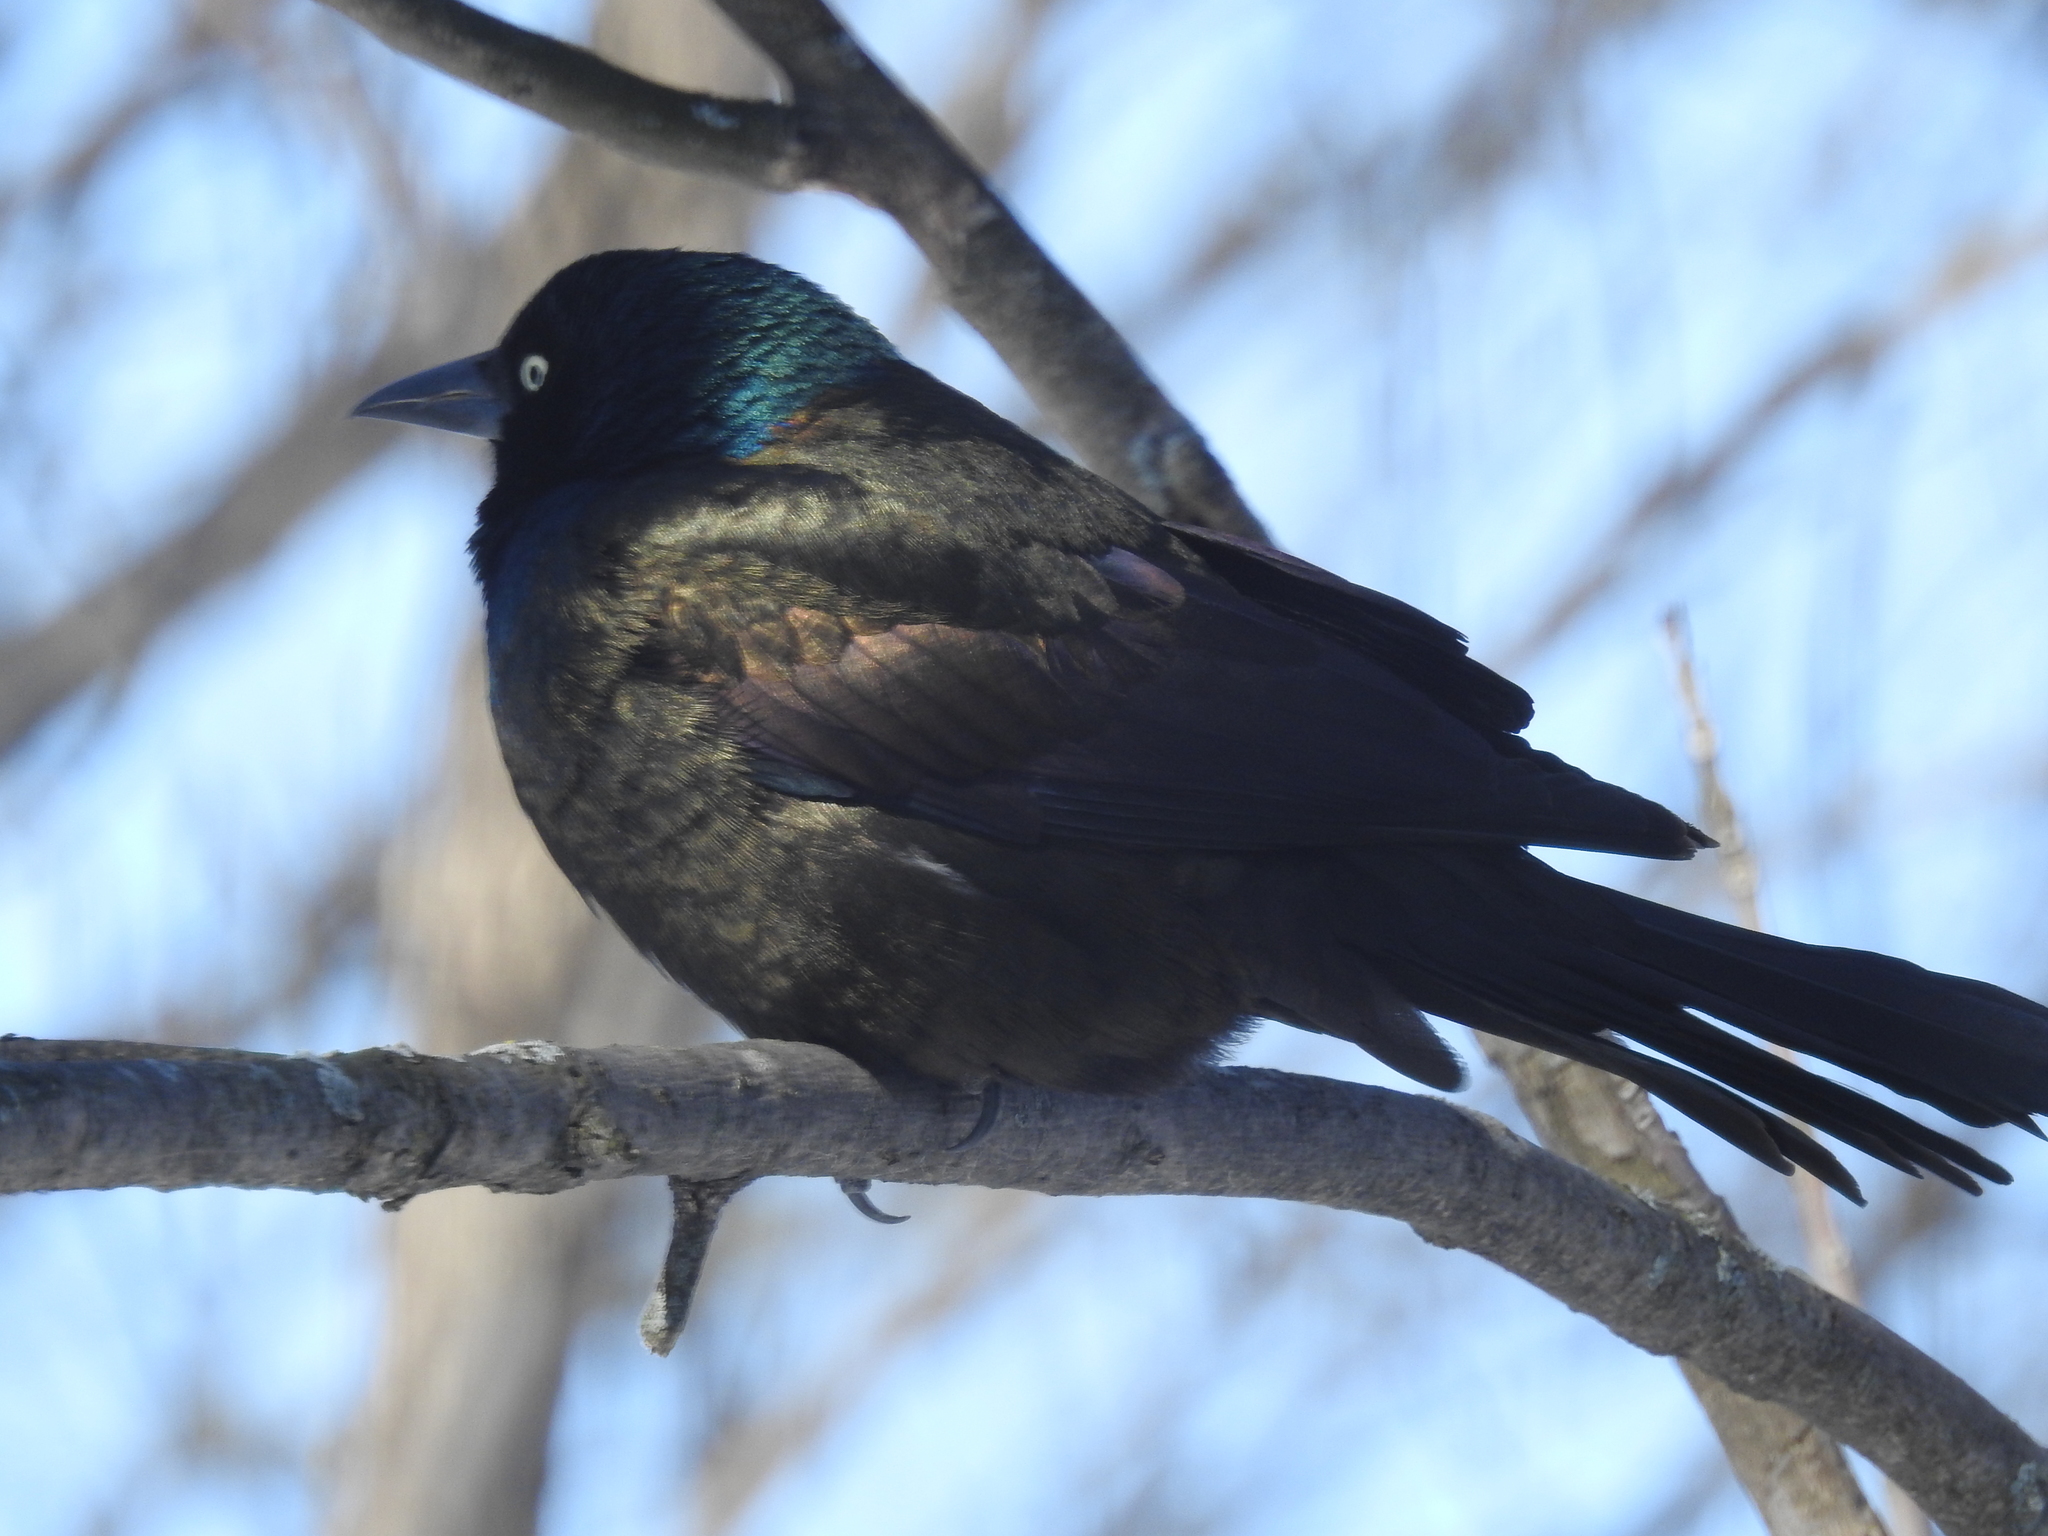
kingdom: Animalia
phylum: Chordata
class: Aves
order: Passeriformes
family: Icteridae
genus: Quiscalus
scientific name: Quiscalus quiscula
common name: Common grackle
